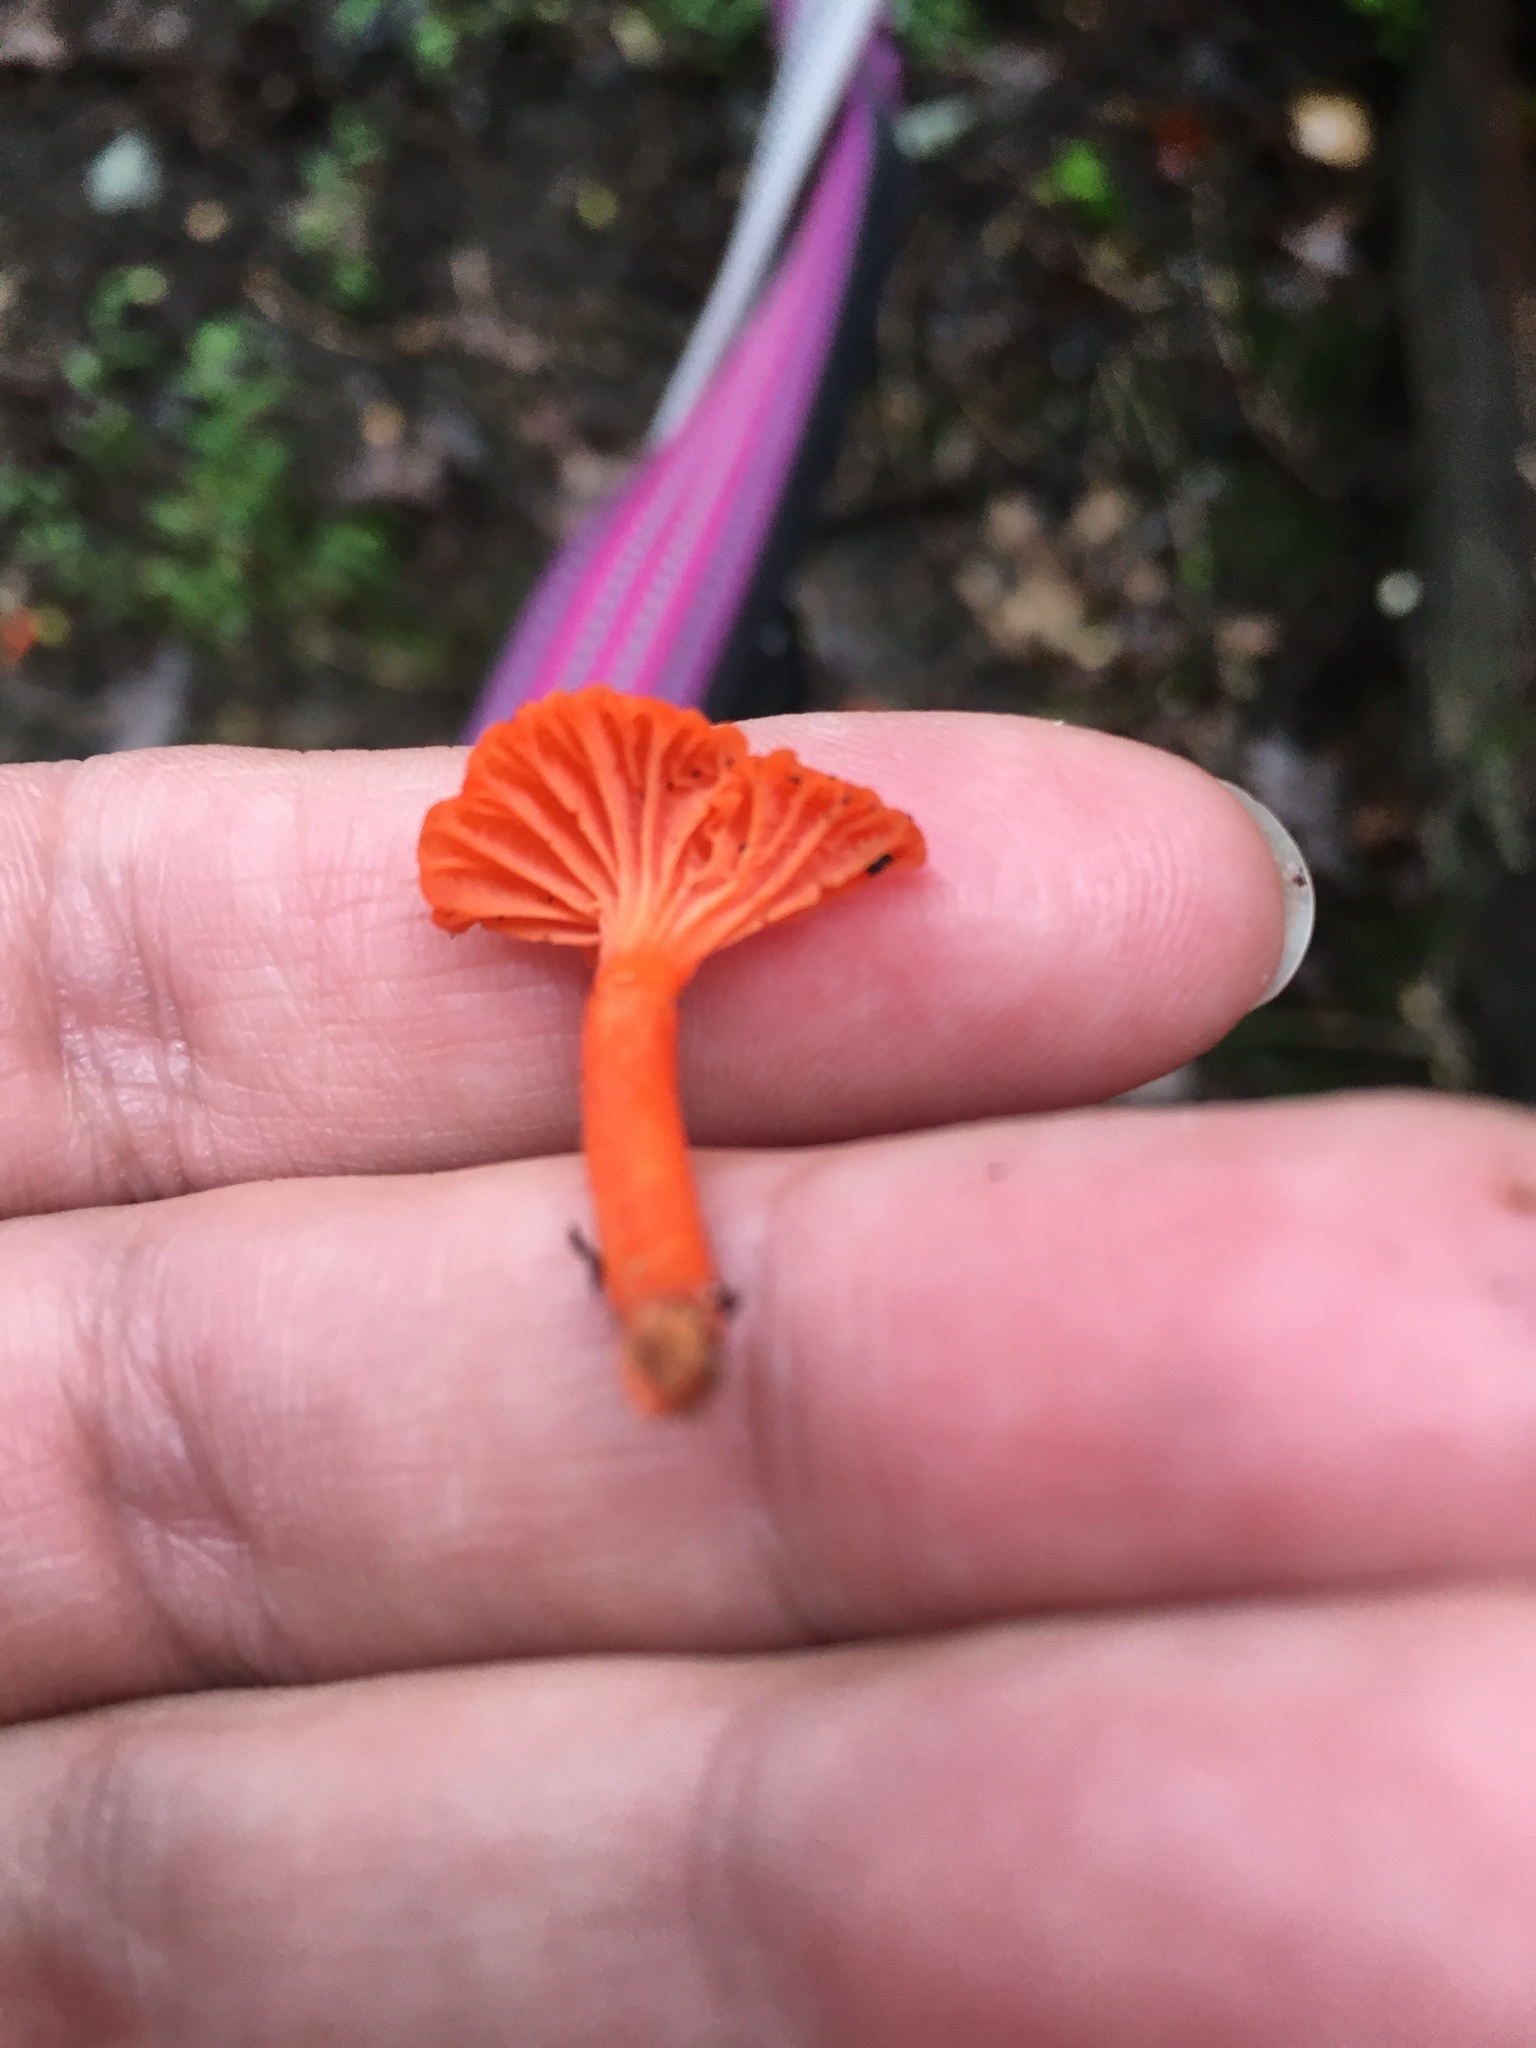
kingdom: Fungi
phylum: Basidiomycota
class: Agaricomycetes
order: Cantharellales
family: Hydnaceae
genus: Cantharellus
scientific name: Cantharellus cinnabarinus
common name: Cinnabar chanterelle
